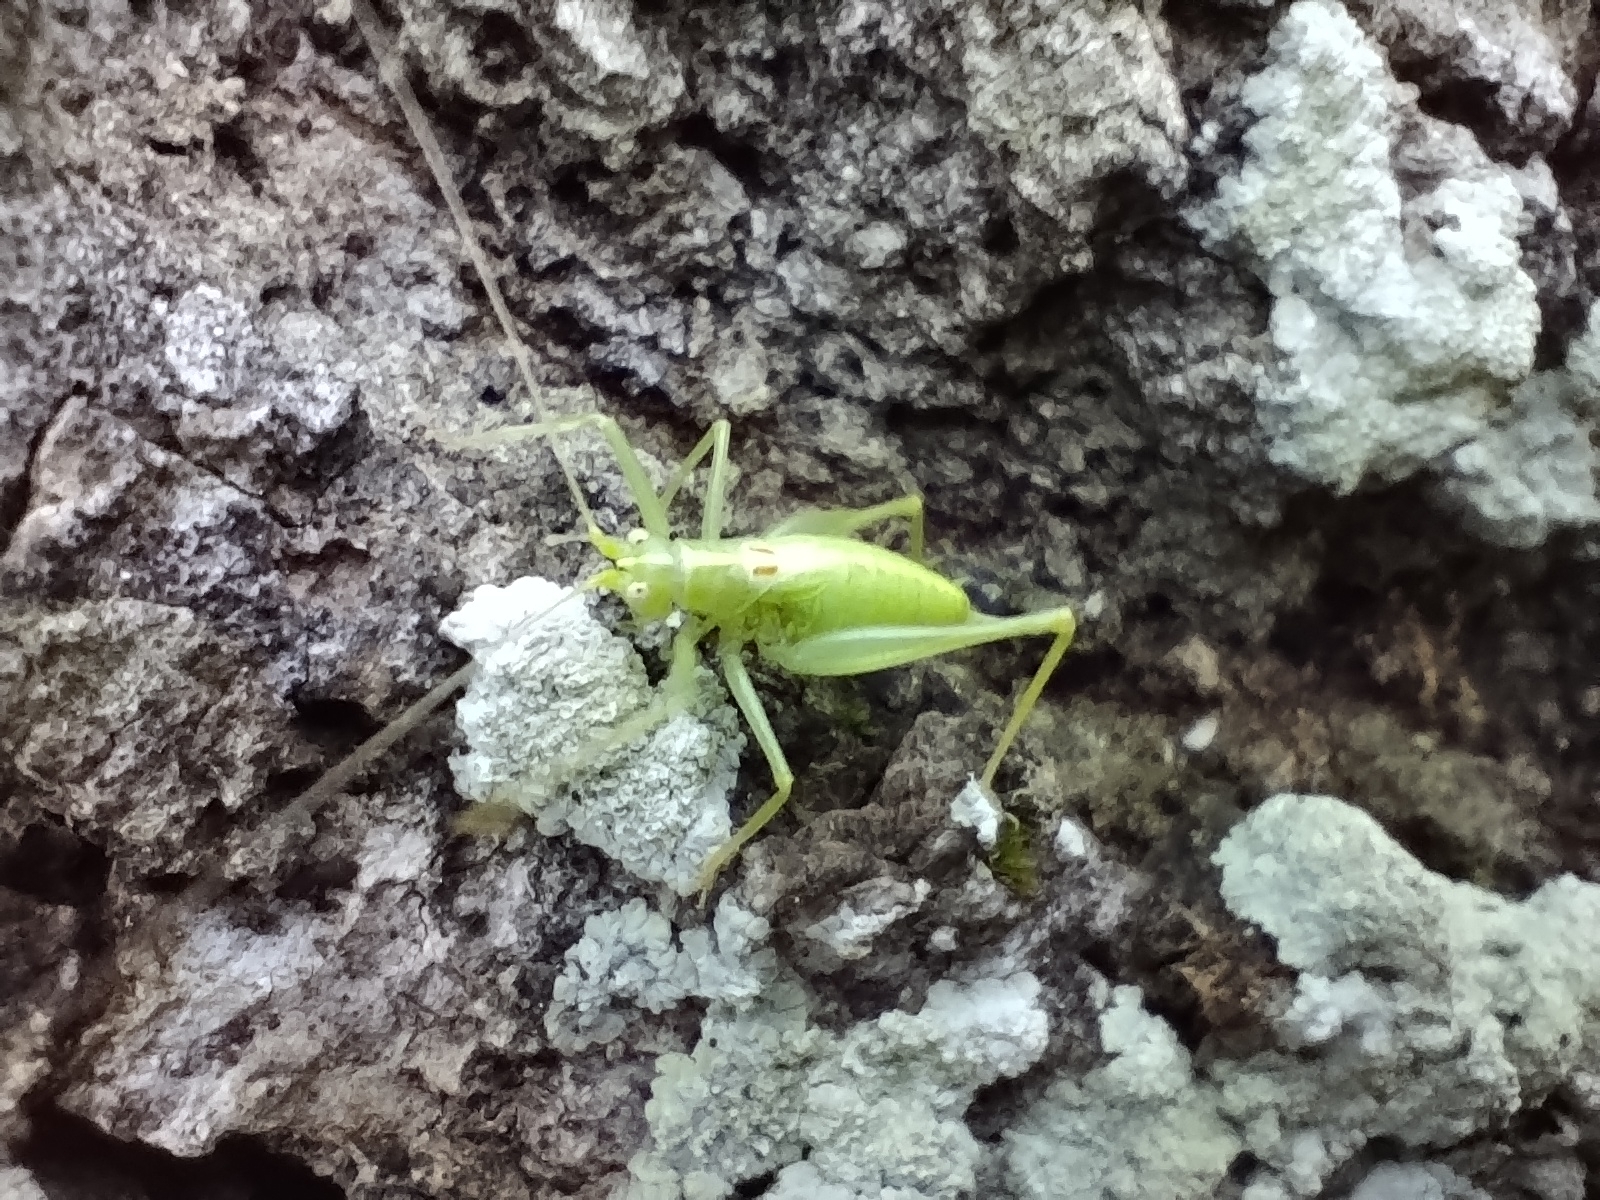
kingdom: Animalia
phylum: Arthropoda
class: Insecta
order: Orthoptera
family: Tettigoniidae
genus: Meconema
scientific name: Meconema meridionale
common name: Southern oak bush-cricket
